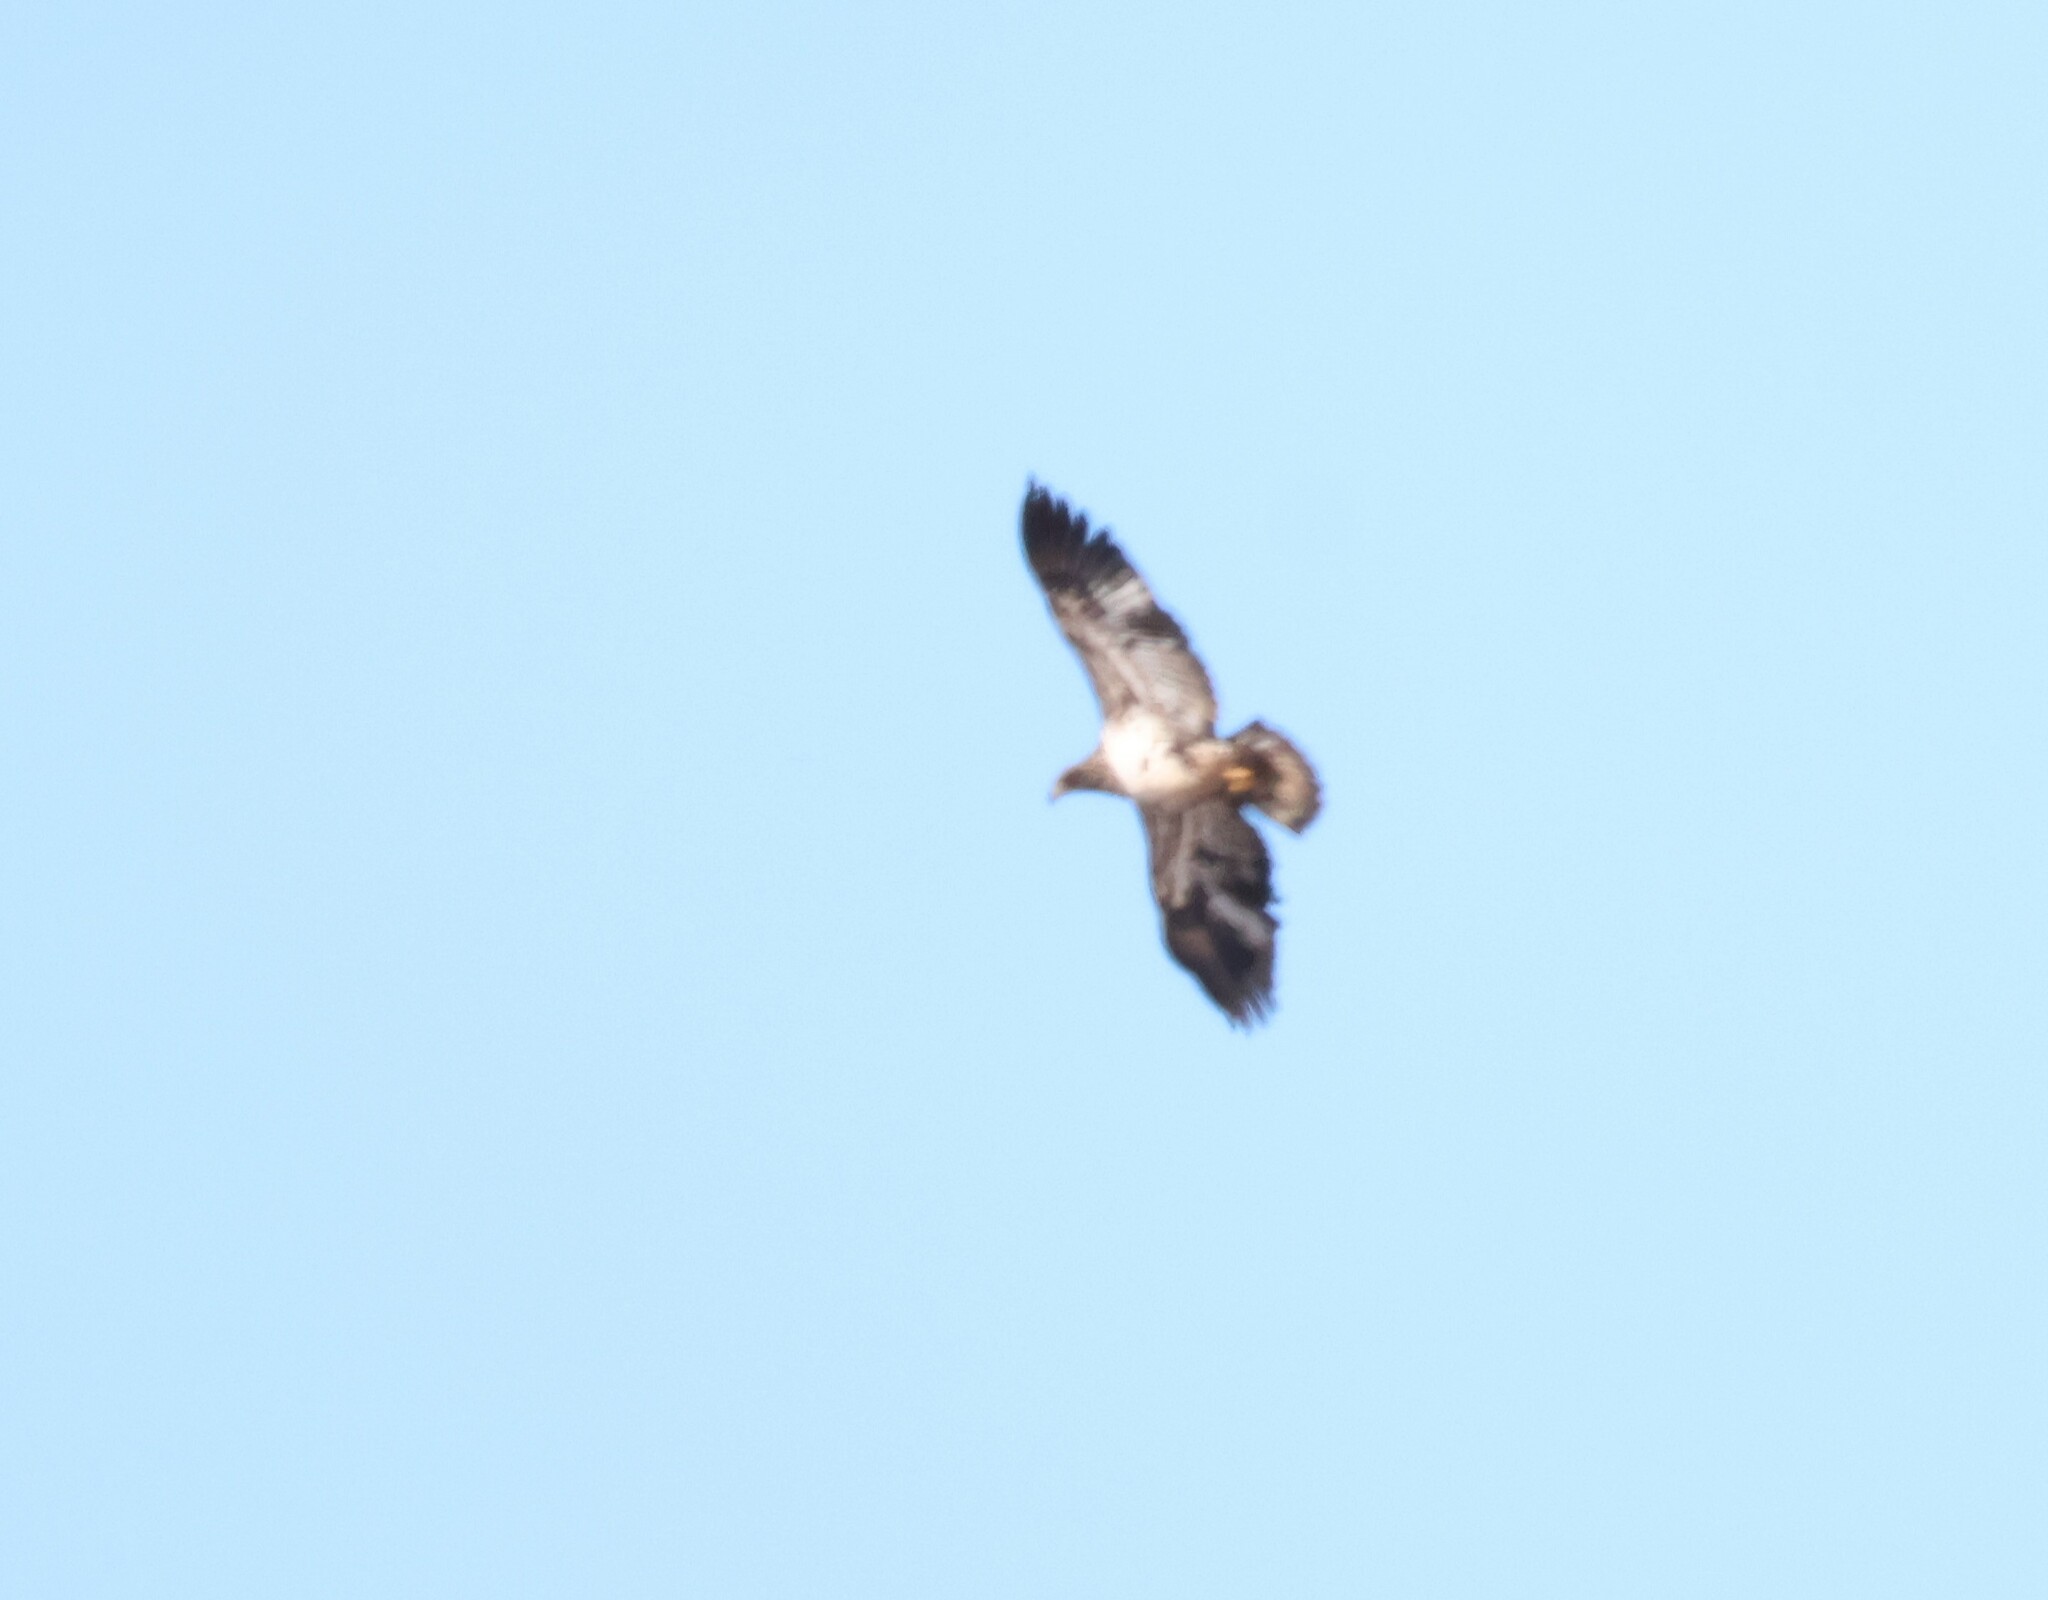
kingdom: Animalia
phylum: Chordata
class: Aves
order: Accipitriformes
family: Accipitridae
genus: Haliaeetus
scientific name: Haliaeetus leucocephalus
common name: Bald eagle
